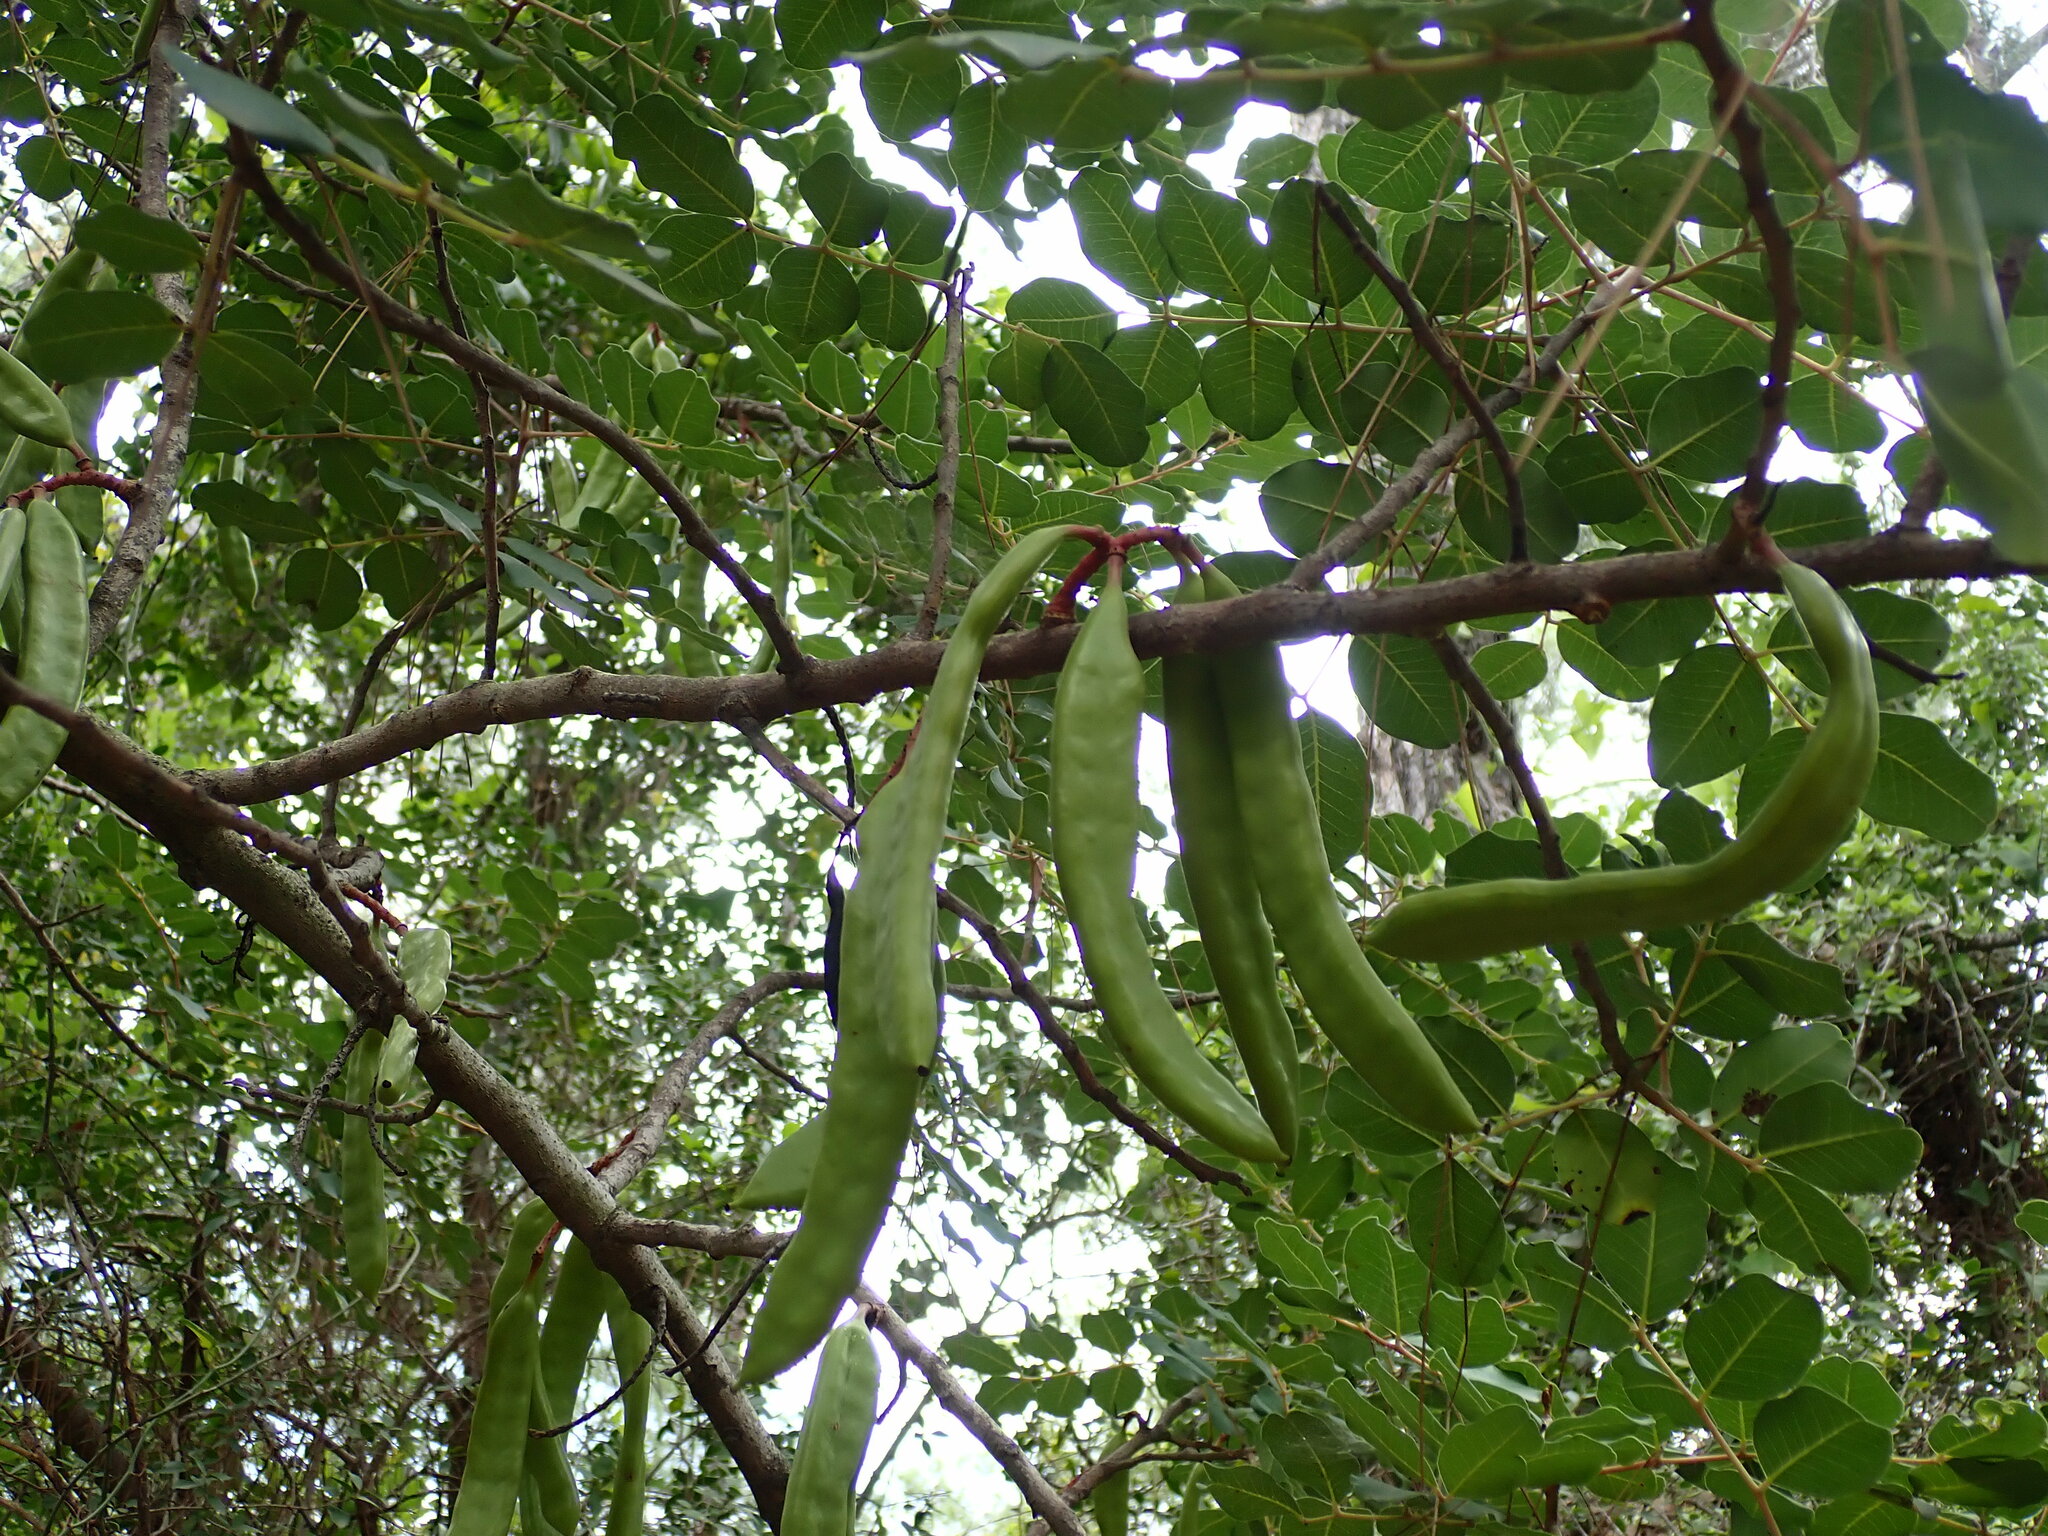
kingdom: Plantae
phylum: Tracheophyta
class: Magnoliopsida
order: Fabales
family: Fabaceae
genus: Ceratonia
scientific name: Ceratonia siliqua
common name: Carob
